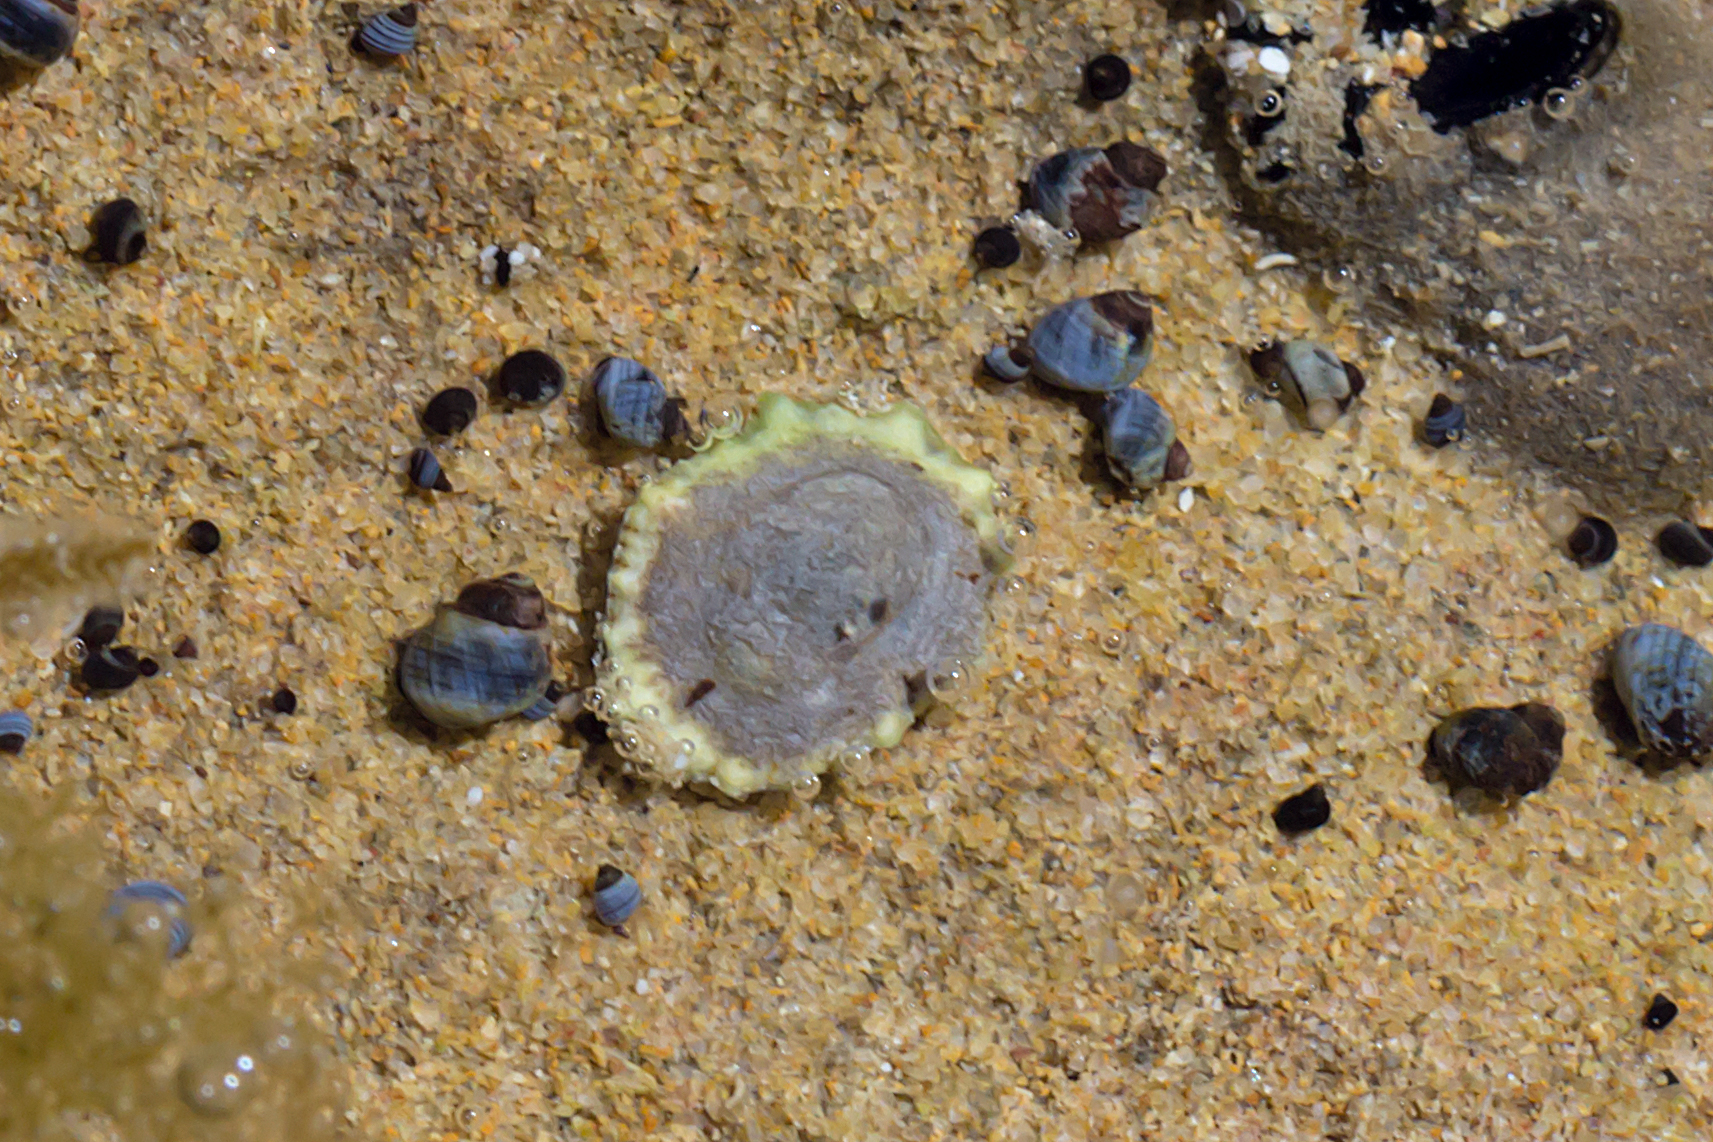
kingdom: Animalia
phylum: Mollusca
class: Gastropoda
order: Siphonariida
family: Siphonariidae
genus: Siphonaria
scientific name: Siphonaria zelandica
